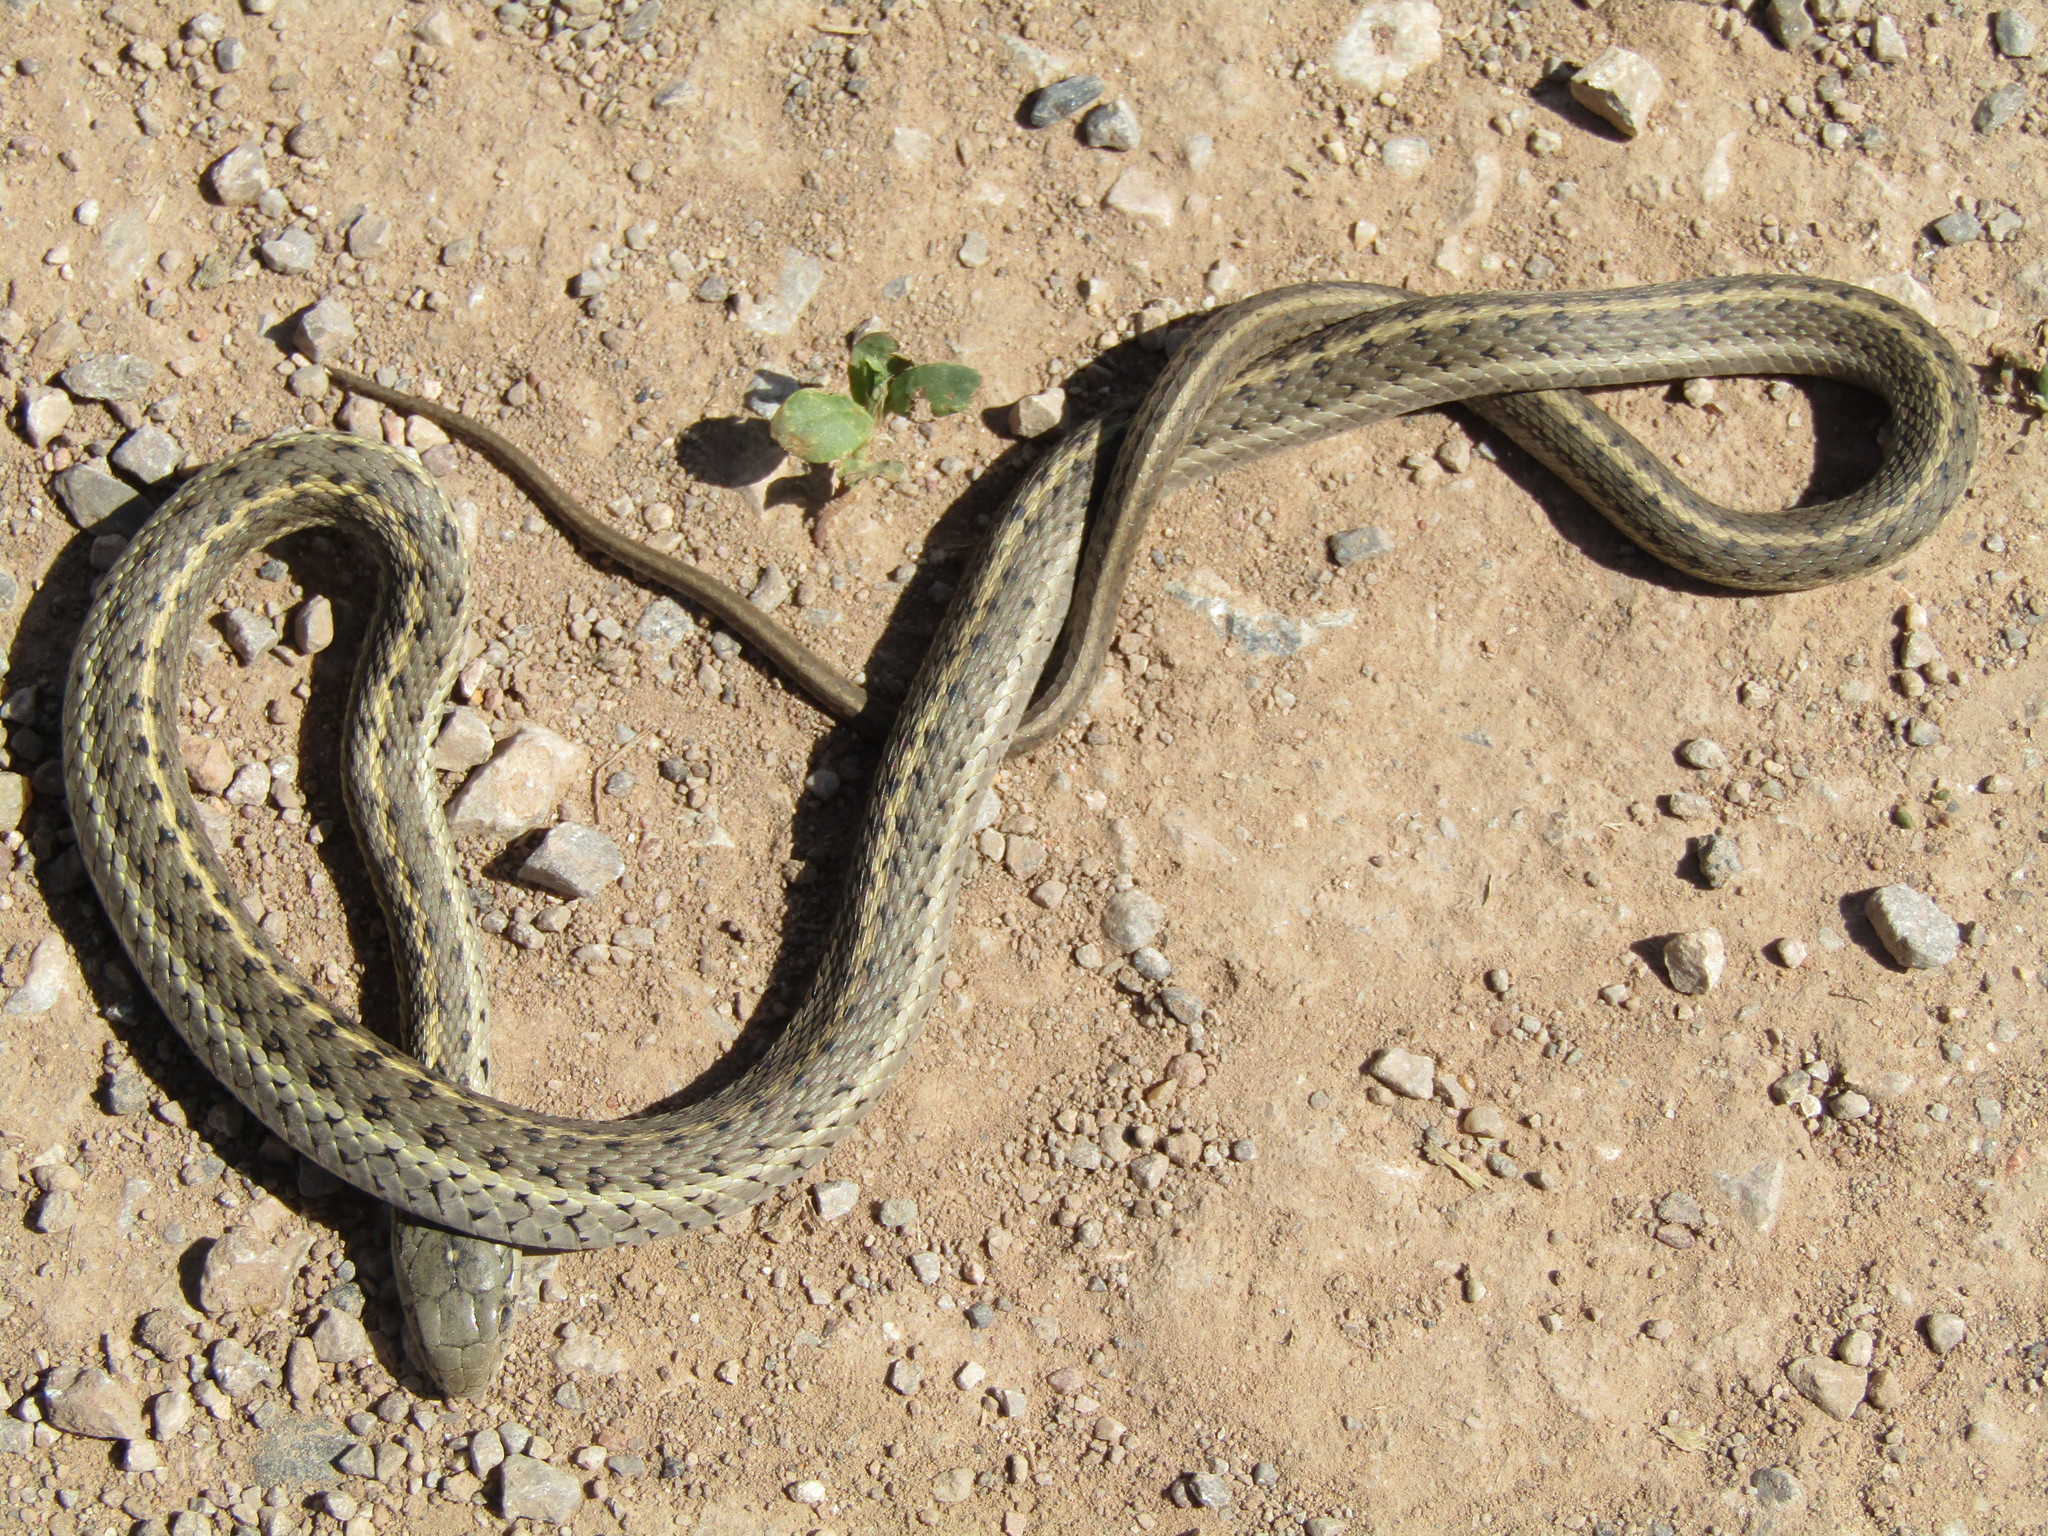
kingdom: Animalia
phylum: Chordata
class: Squamata
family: Colubridae
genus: Thamnophis
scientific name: Thamnophis elegans
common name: Western terrestrial garter snake
